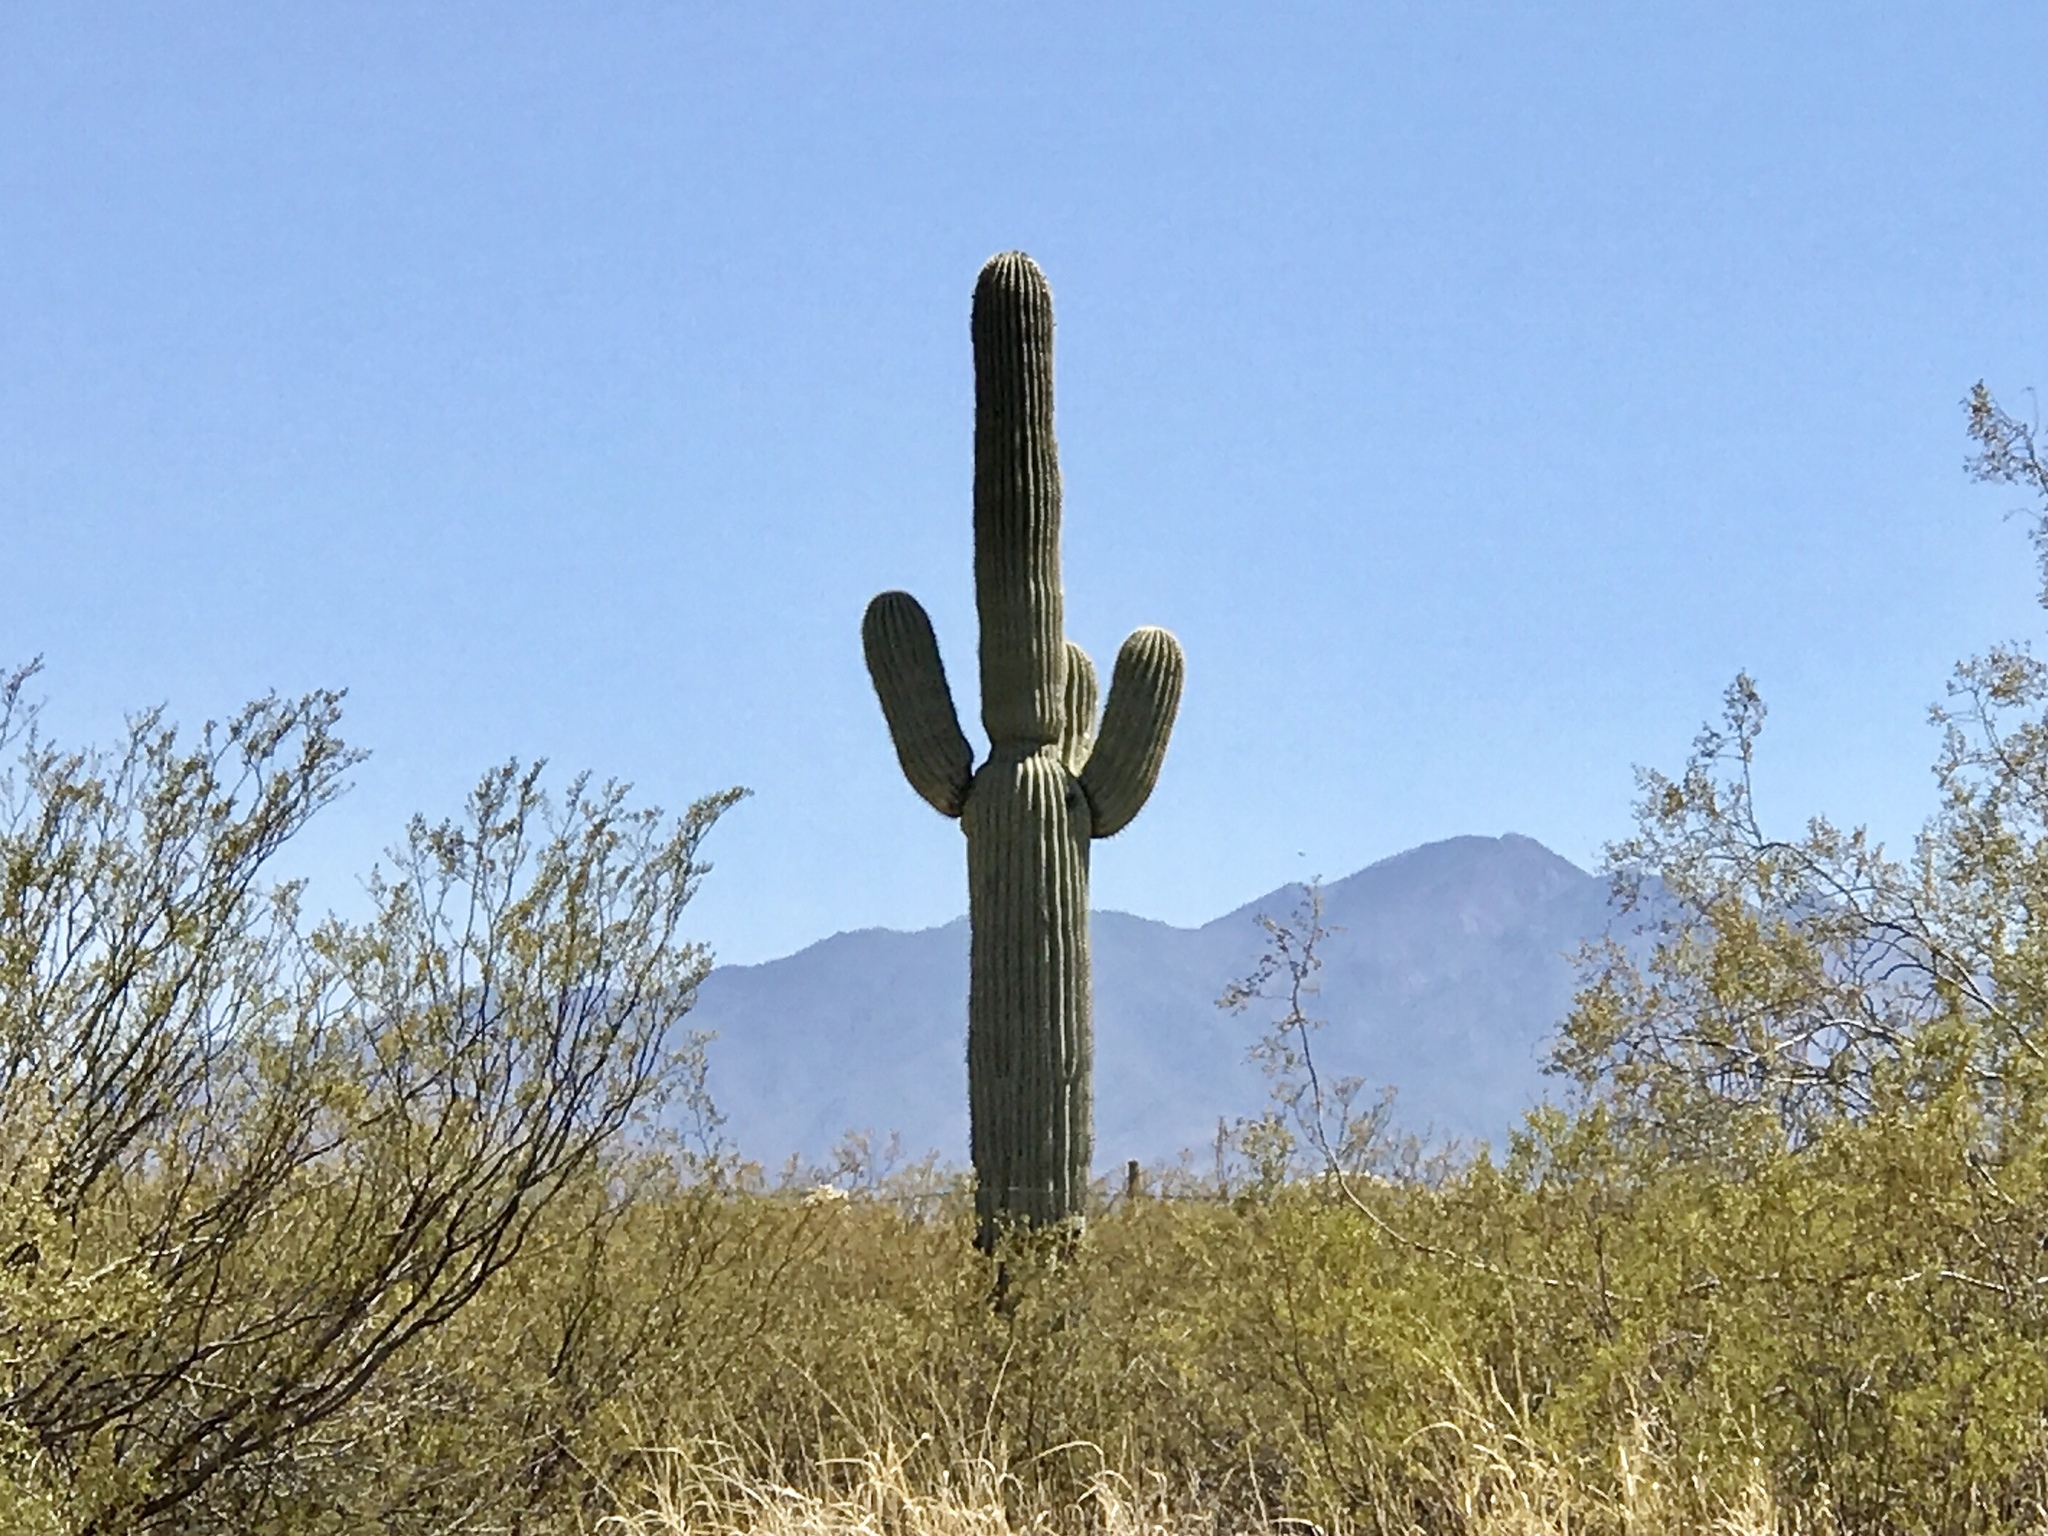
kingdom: Plantae
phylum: Tracheophyta
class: Magnoliopsida
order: Caryophyllales
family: Cactaceae
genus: Carnegiea
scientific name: Carnegiea gigantea
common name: Saguaro
